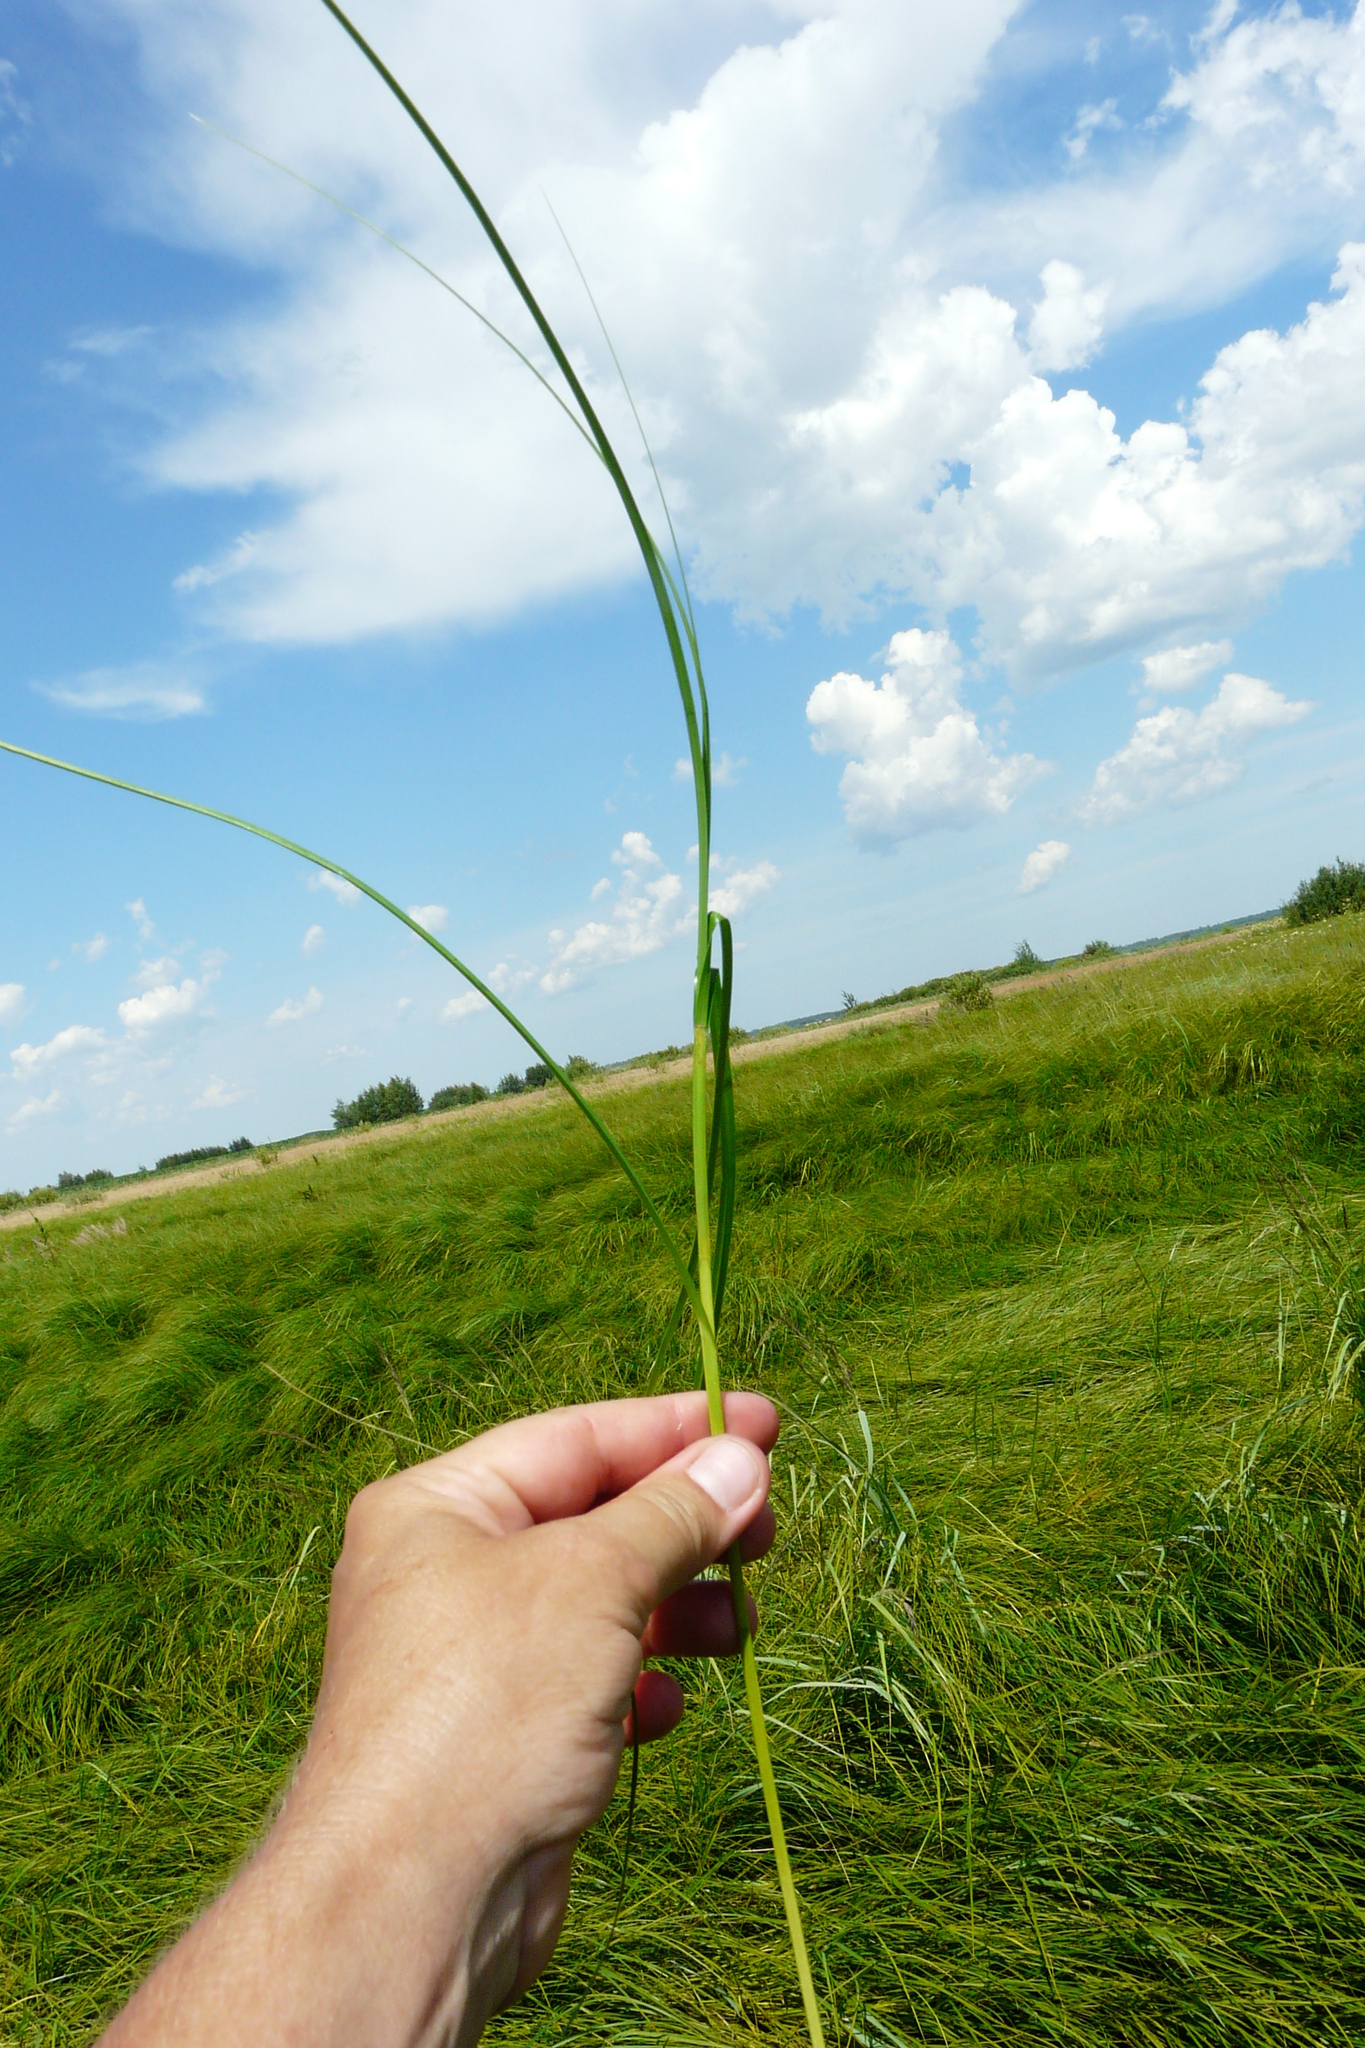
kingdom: Plantae
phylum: Tracheophyta
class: Liliopsida
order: Poales
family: Cyperaceae
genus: Carex
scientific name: Carex disticha
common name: Brown sedge
